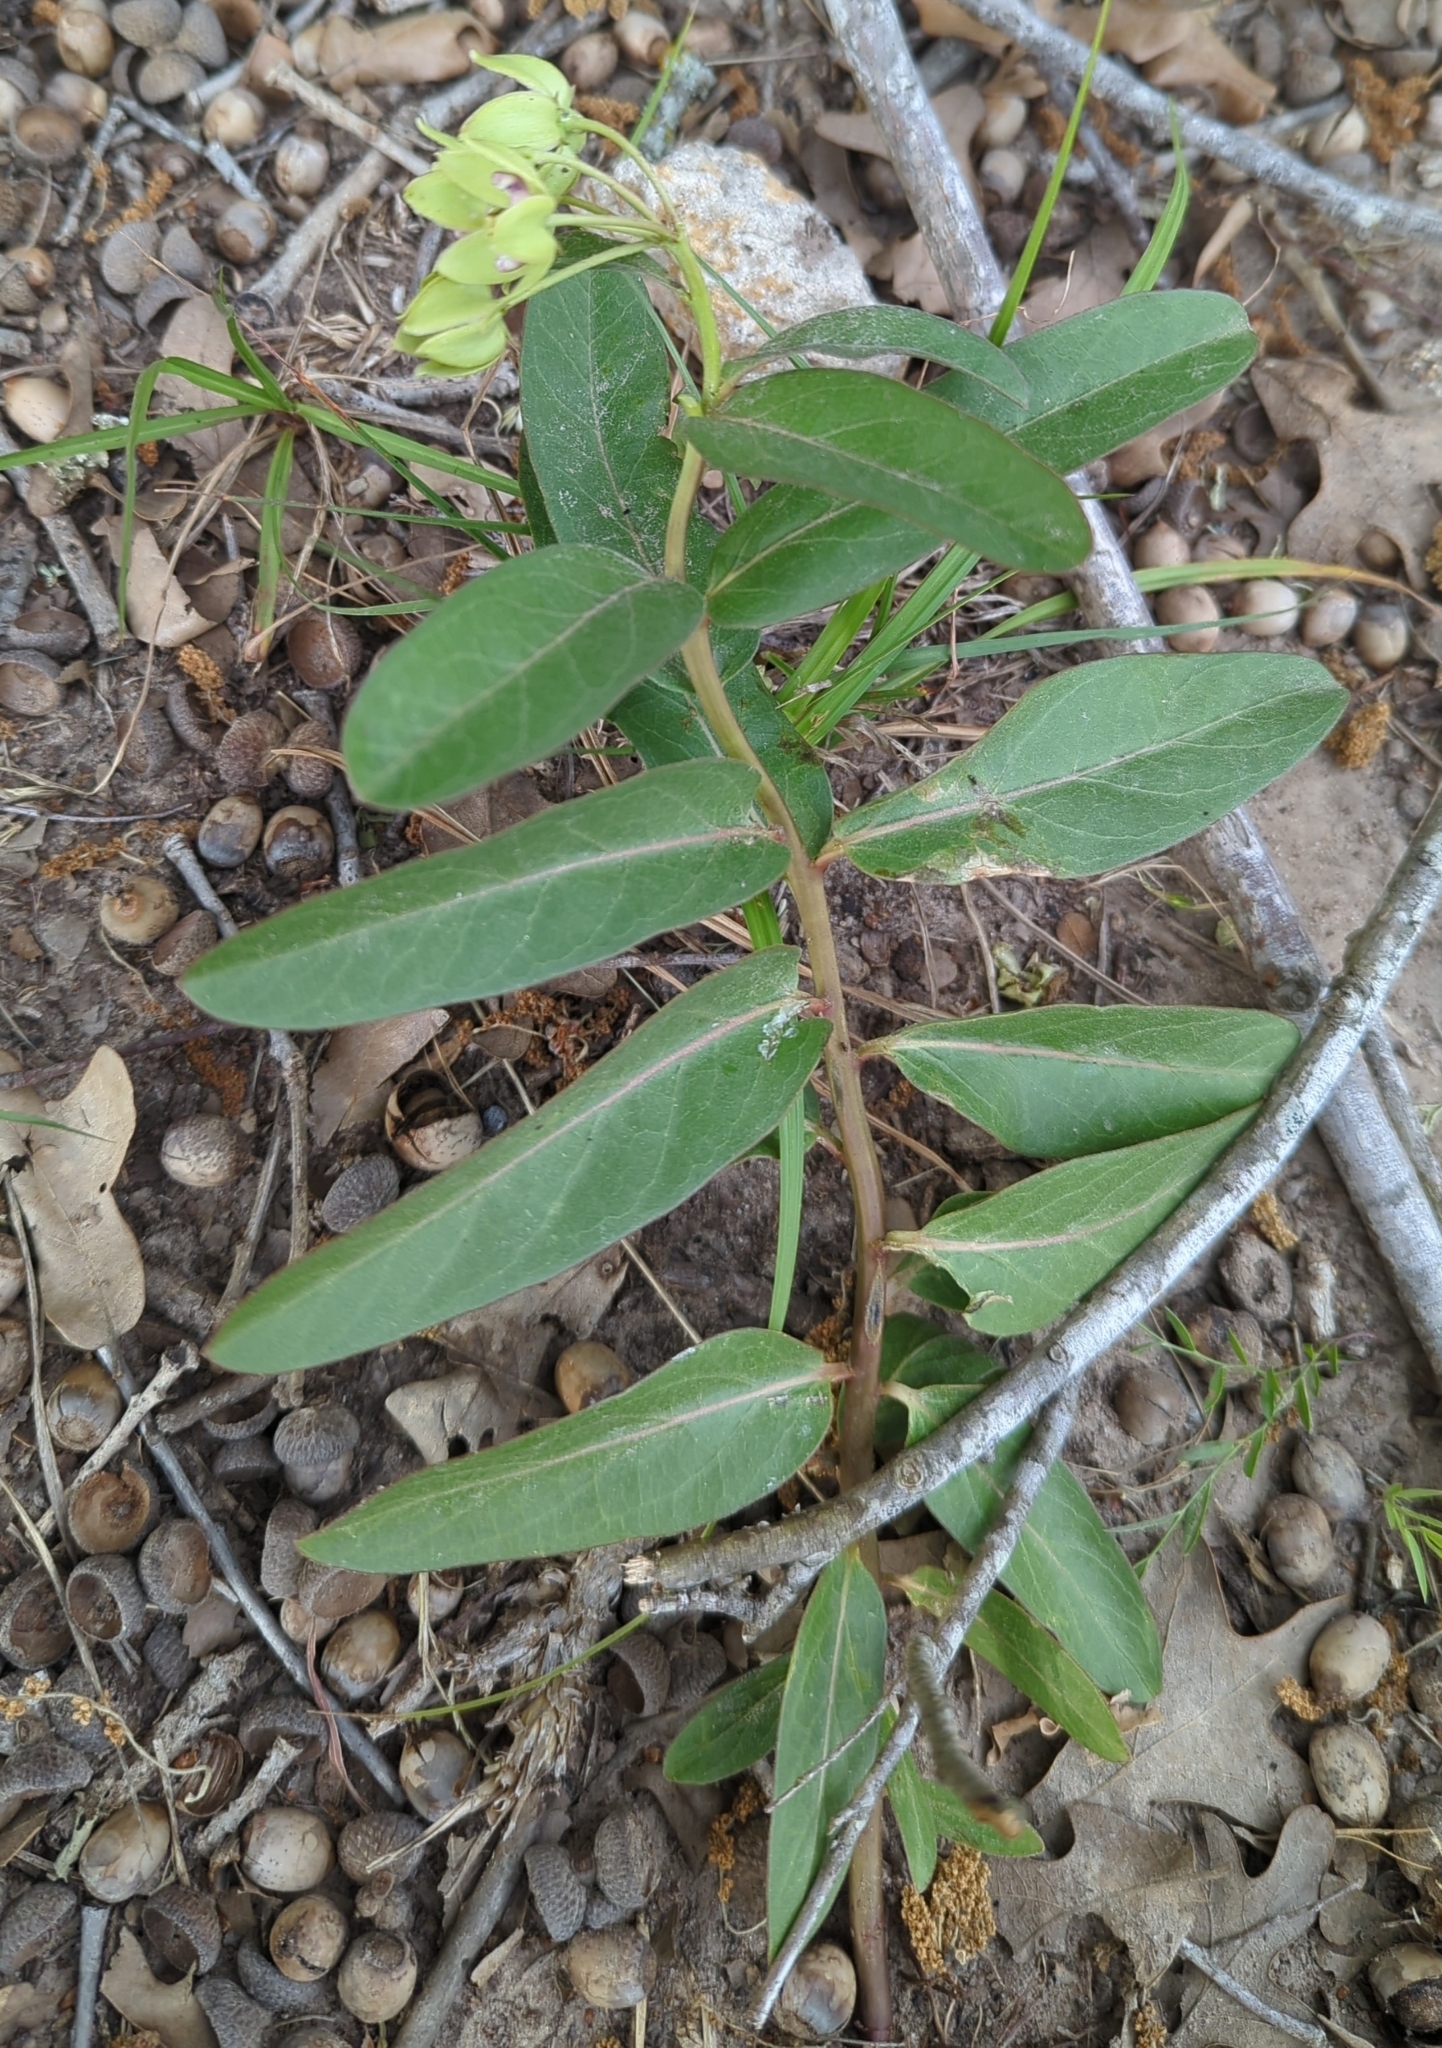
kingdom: Plantae
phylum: Tracheophyta
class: Magnoliopsida
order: Gentianales
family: Apocynaceae
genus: Asclepias
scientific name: Asclepias viridis
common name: Antelope-horns
